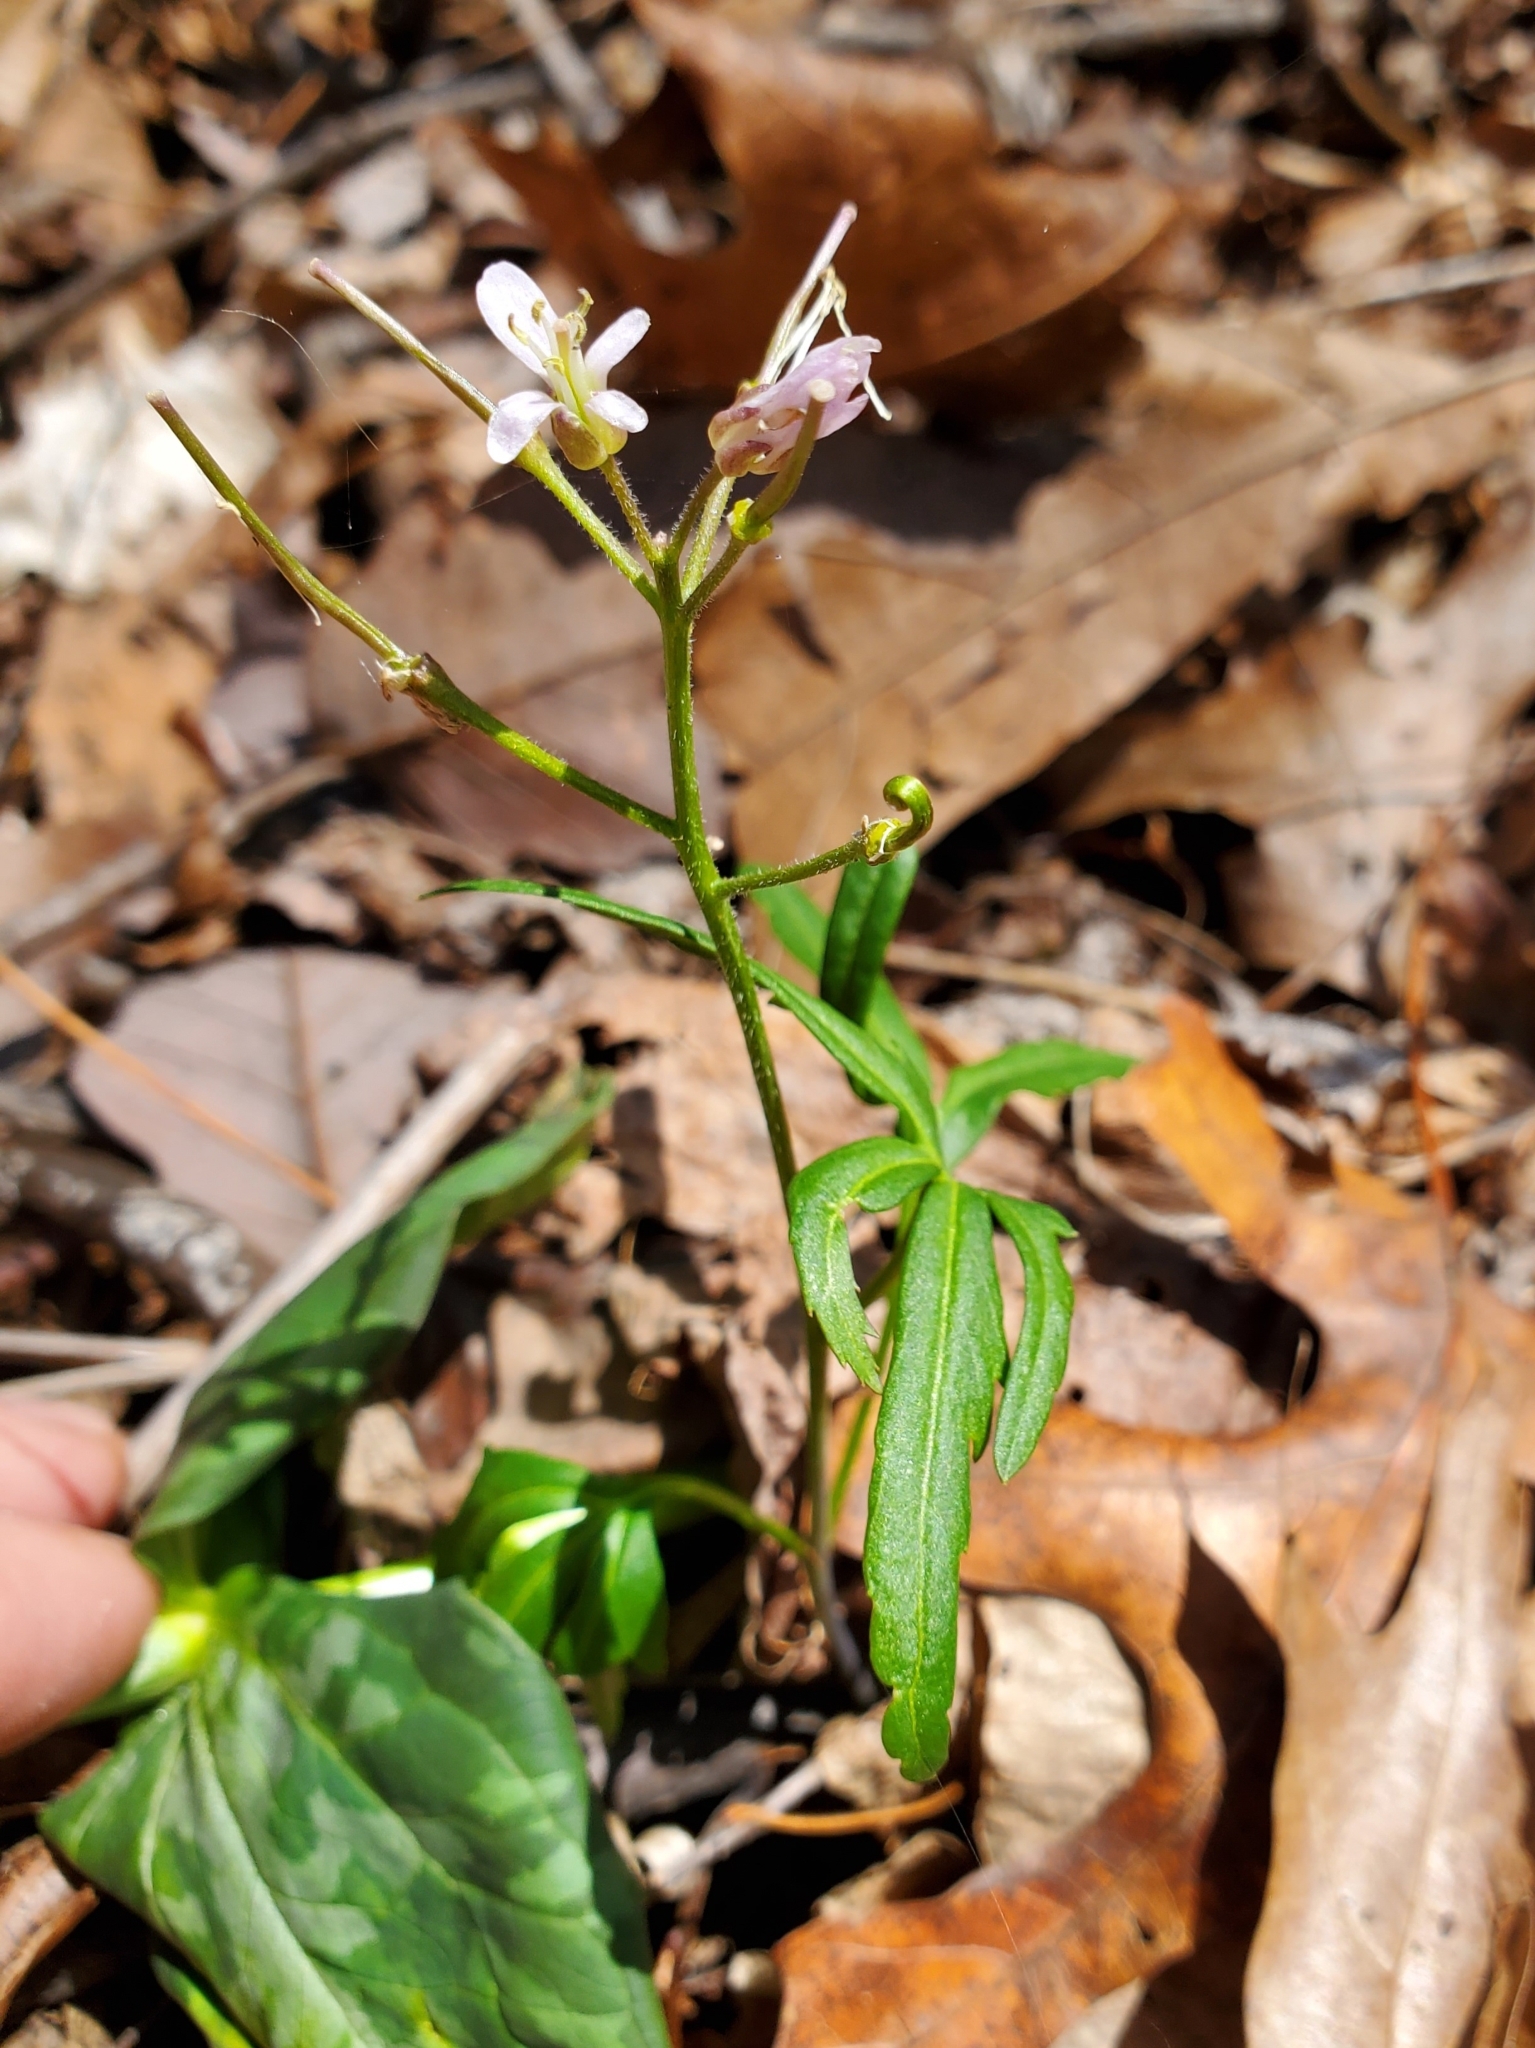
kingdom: Plantae
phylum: Tracheophyta
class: Magnoliopsida
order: Brassicales
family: Brassicaceae
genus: Cardamine
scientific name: Cardamine concatenata
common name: Cut-leaf toothcup
